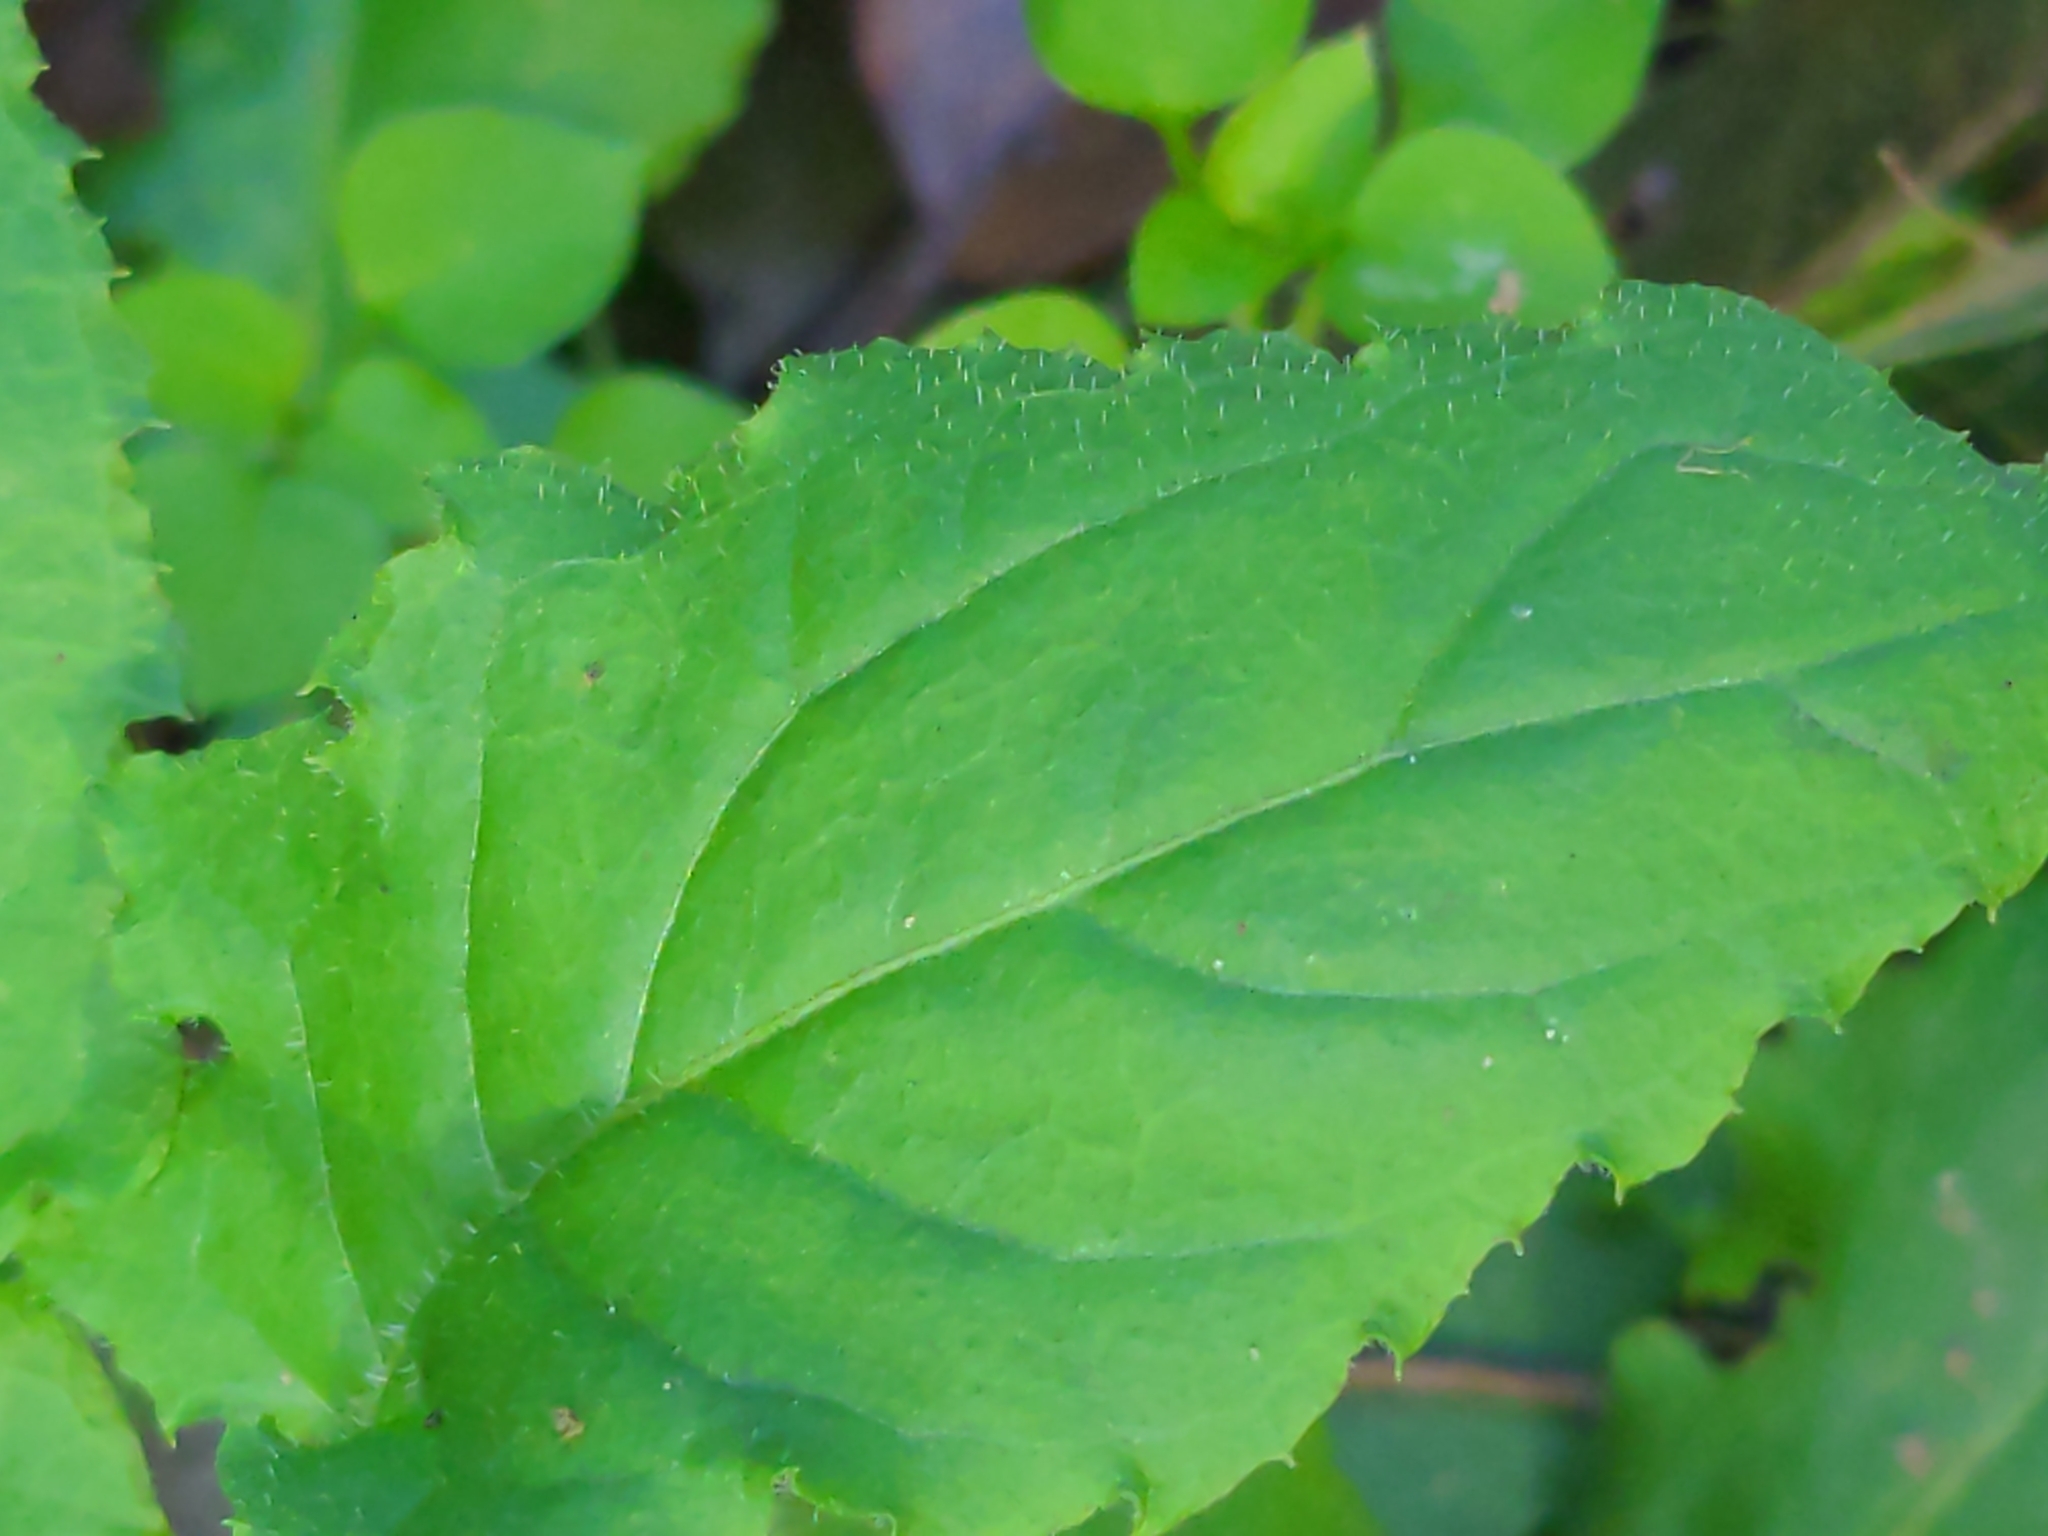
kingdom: Plantae
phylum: Tracheophyta
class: Magnoliopsida
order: Asterales
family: Asteraceae
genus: Youngia
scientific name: Youngia japonica
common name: Oriental false hawksbeard
